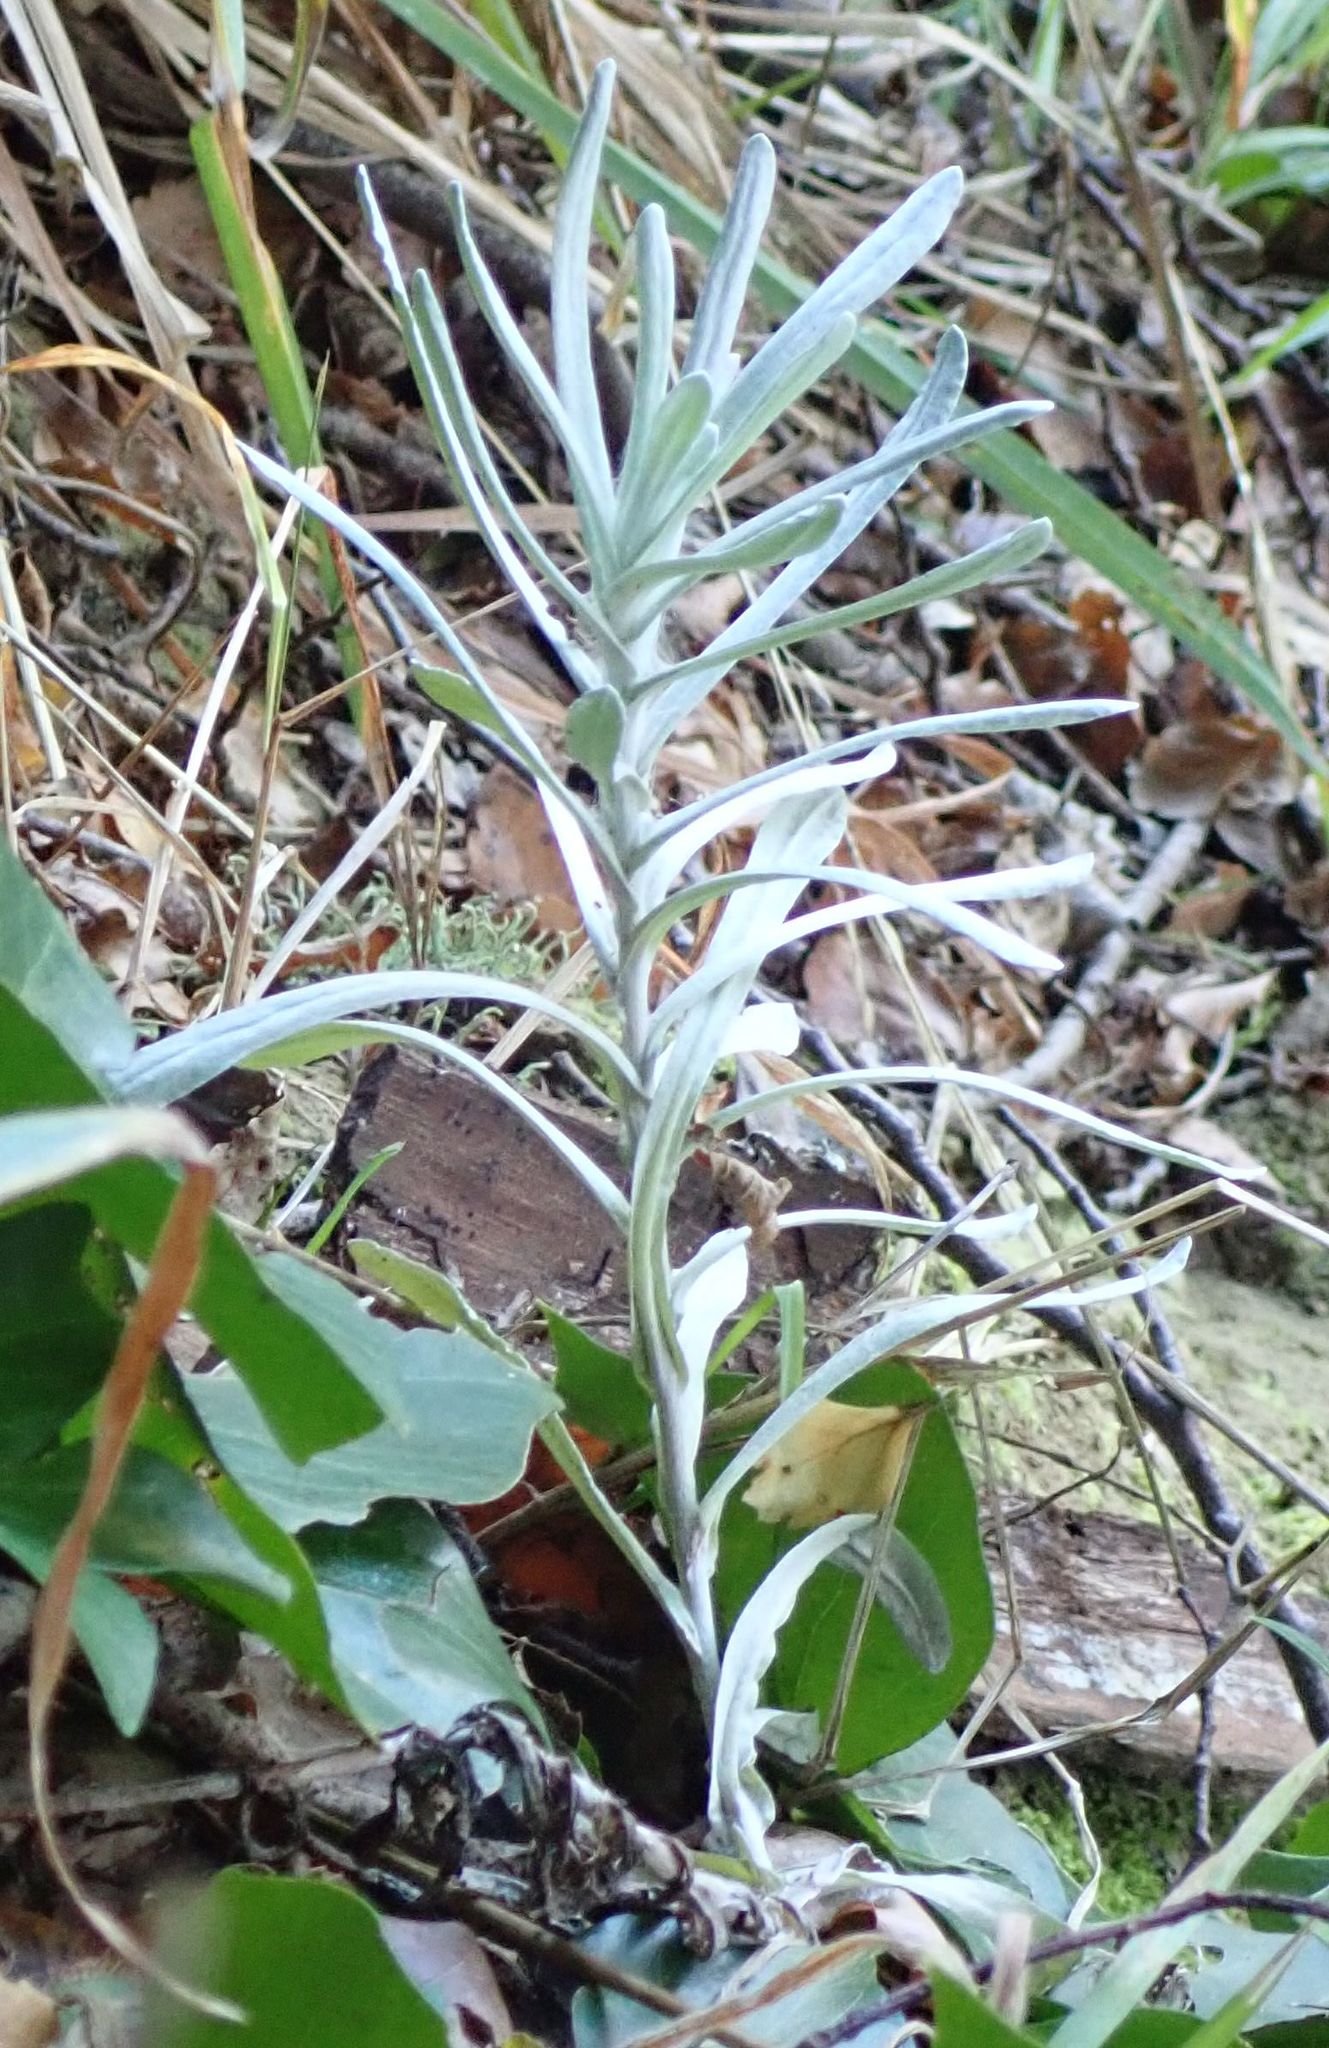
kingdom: Plantae
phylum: Tracheophyta
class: Magnoliopsida
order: Asterales
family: Asteraceae
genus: Senecio
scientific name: Senecio quadridentatus
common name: Cotton fireweed
